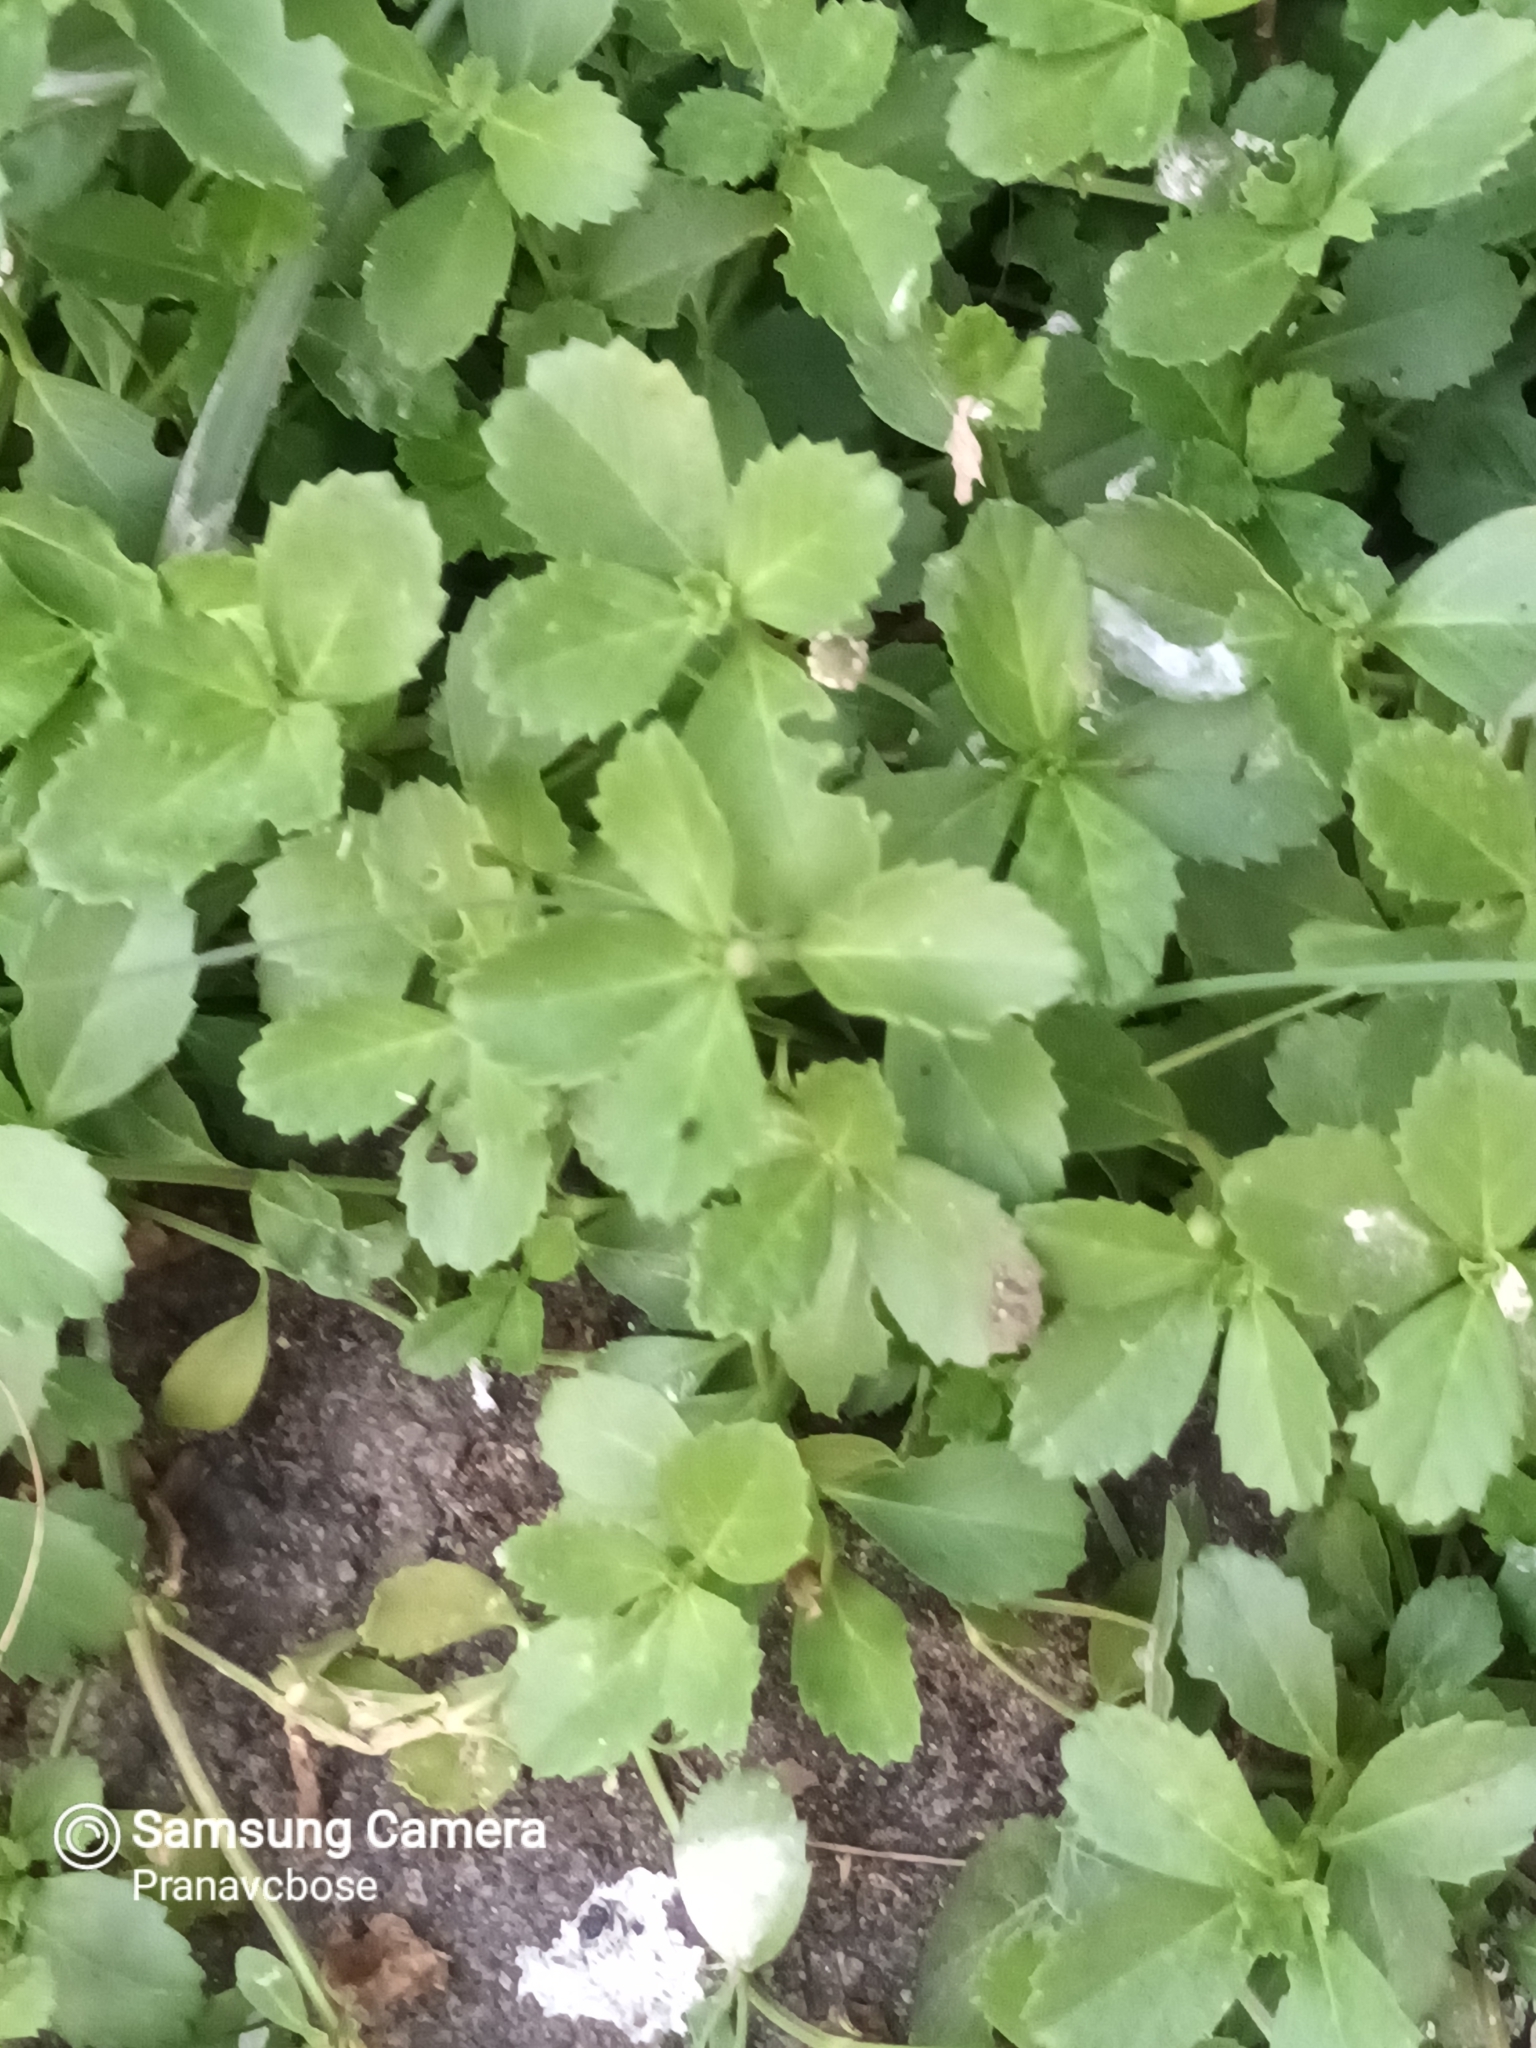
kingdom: Plantae
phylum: Tracheophyta
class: Magnoliopsida
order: Lamiales
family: Verbenaceae
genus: Phyla
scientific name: Phyla nodiflora
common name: Frogfruit
